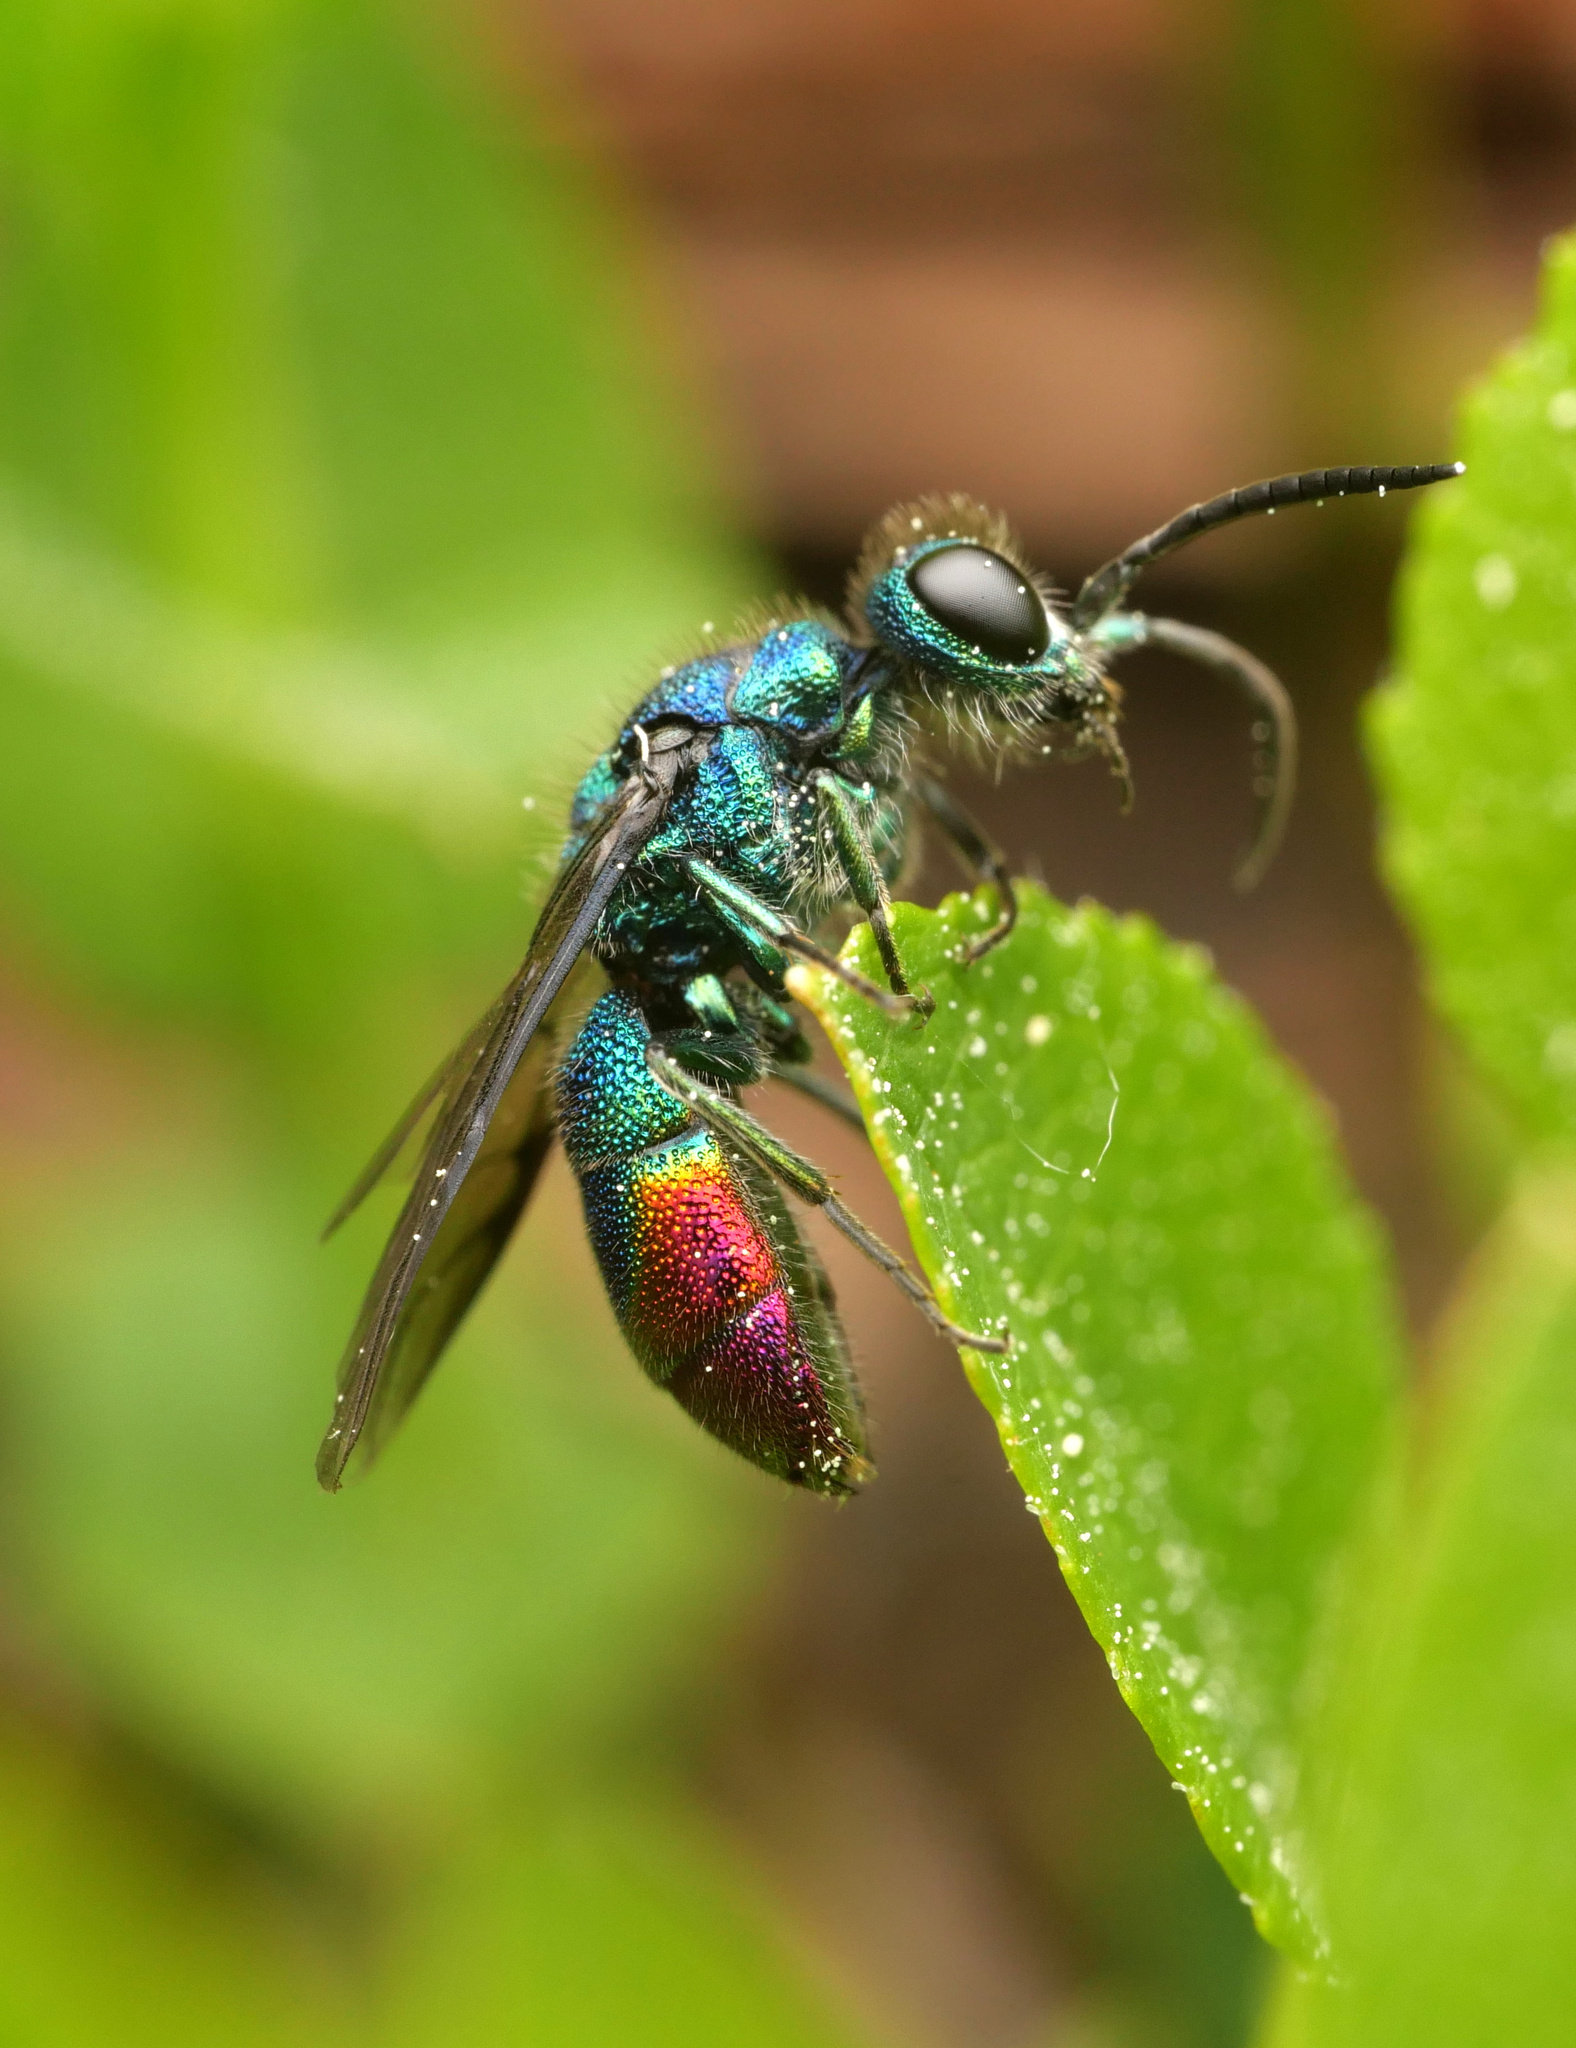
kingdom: Animalia
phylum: Arthropoda
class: Insecta
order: Hymenoptera
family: Chrysididae
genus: Chrysis
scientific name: Chrysis fulgida
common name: Shimmering ruby-tail
